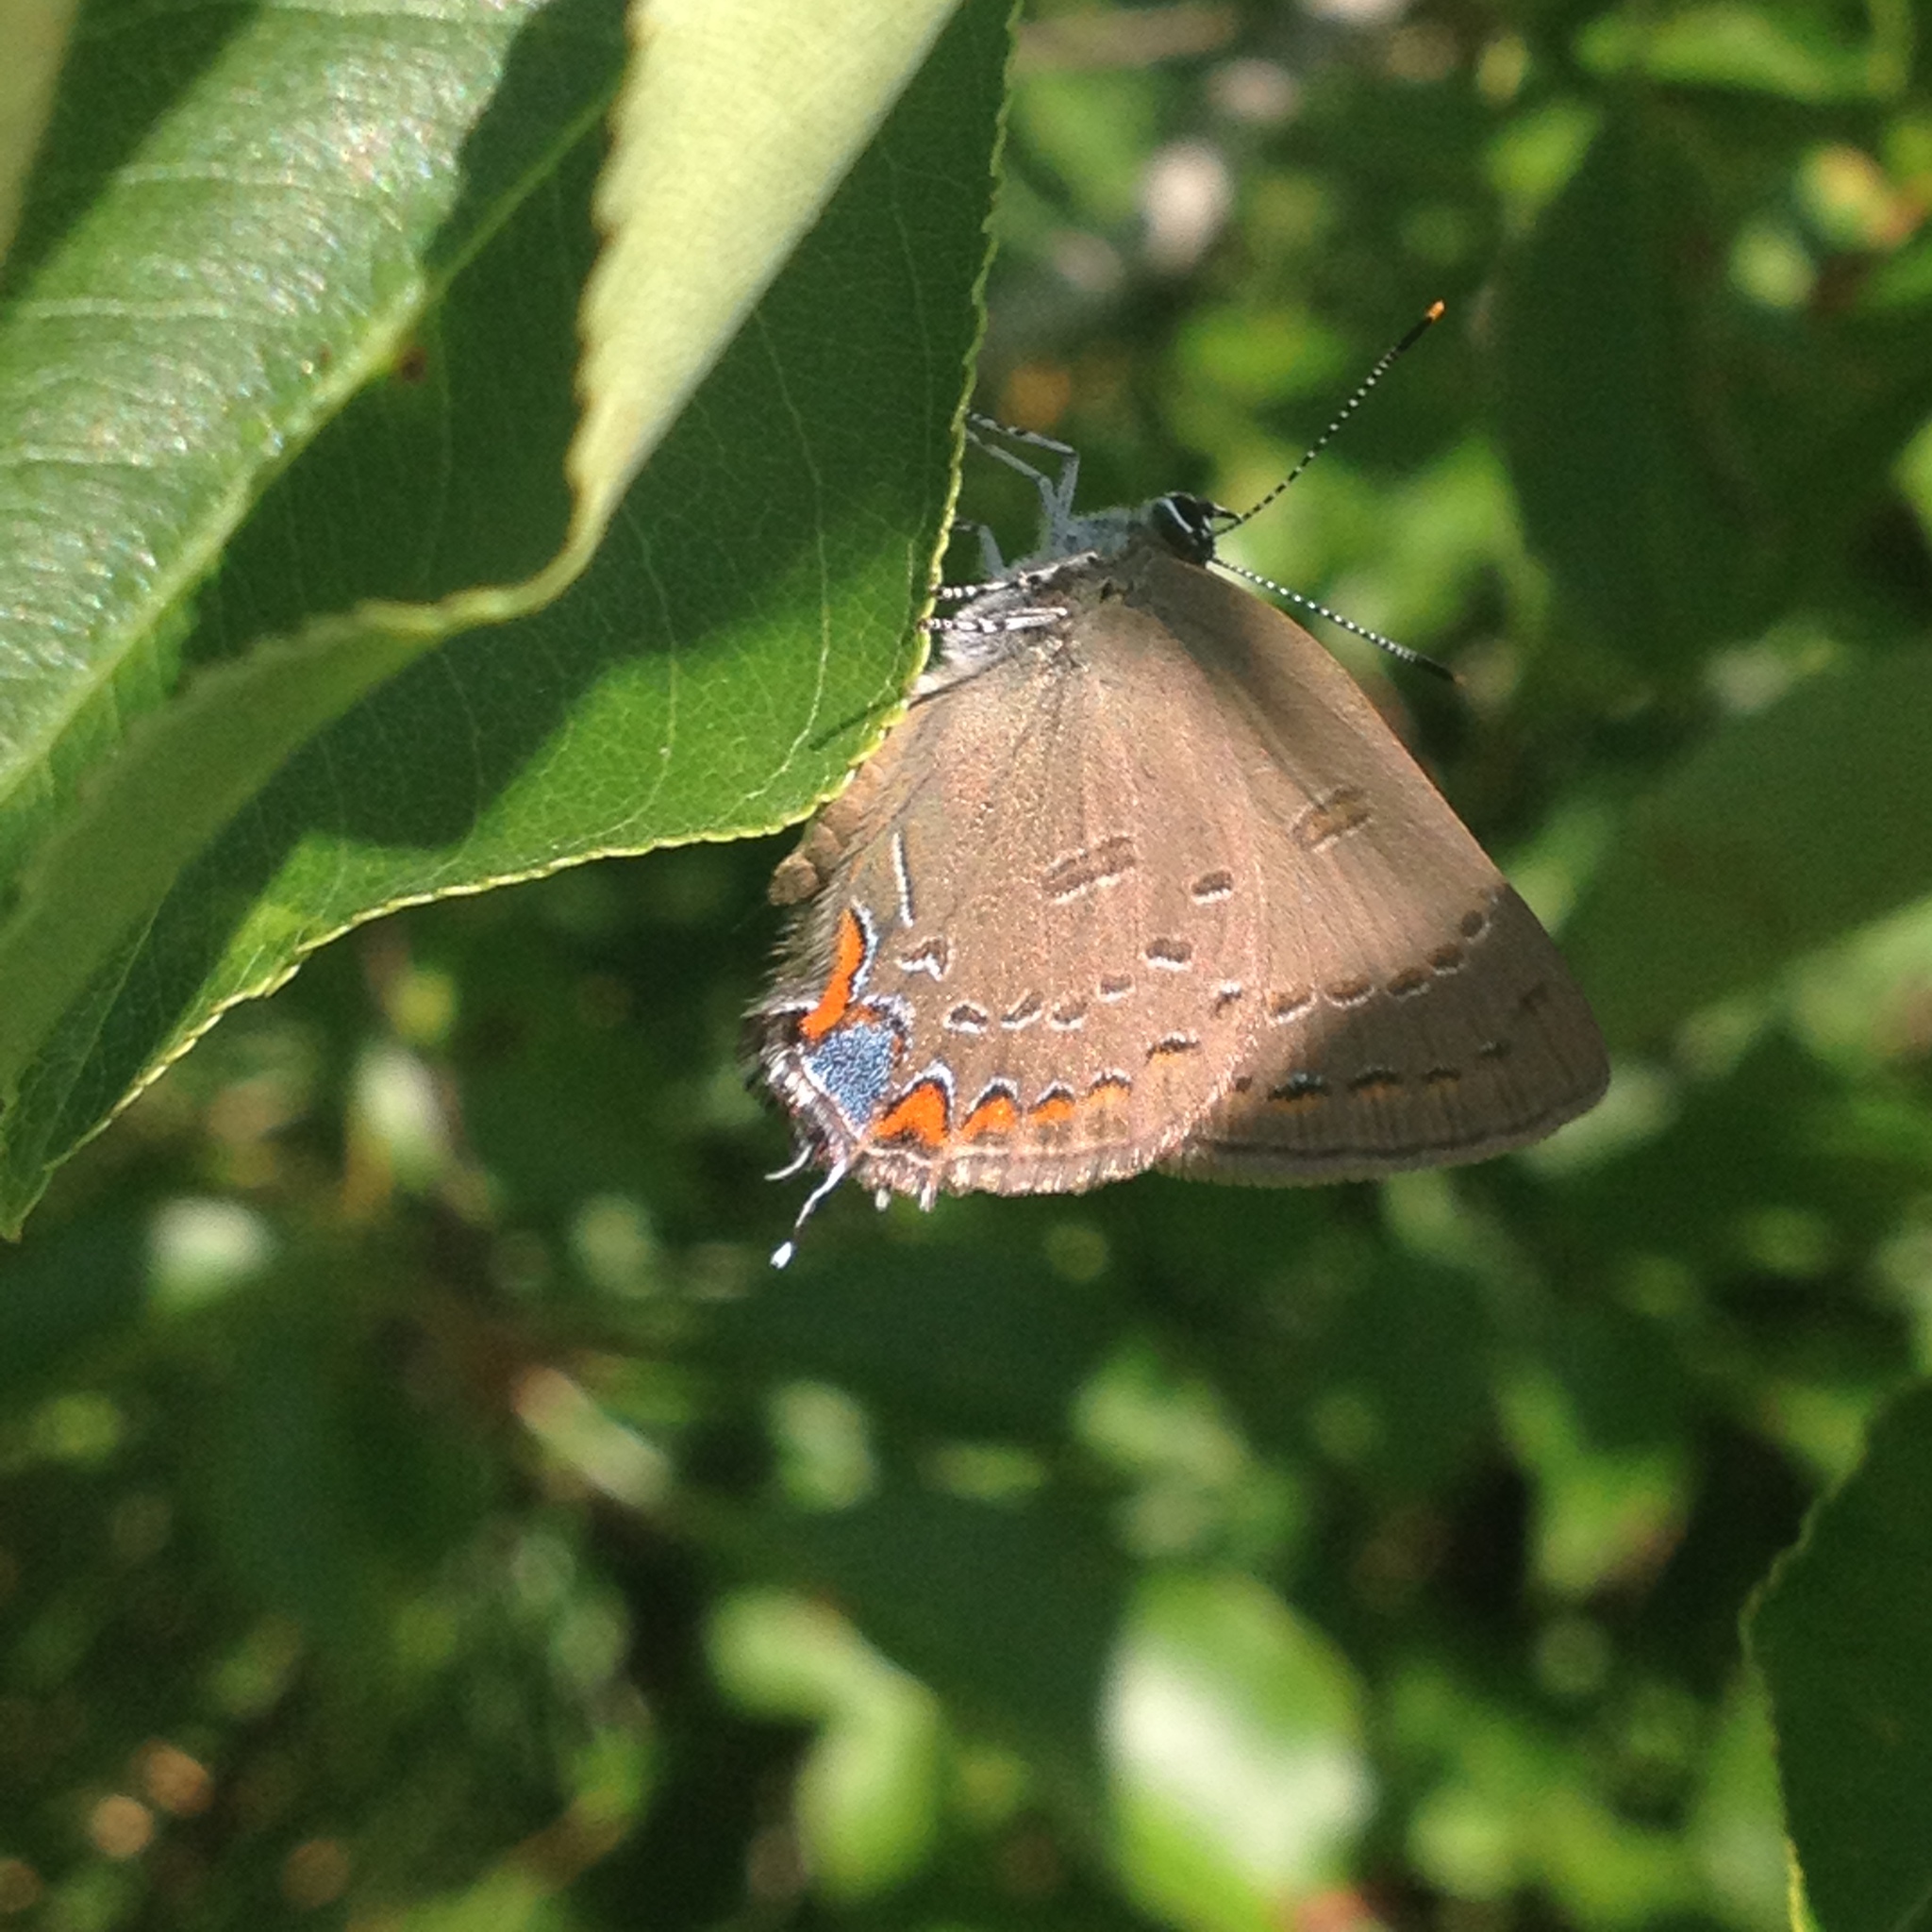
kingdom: Animalia
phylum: Arthropoda
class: Insecta
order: Lepidoptera
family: Lycaenidae
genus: Satyrium
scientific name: Satyrium edwardsii
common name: Edwards' hairstreak
